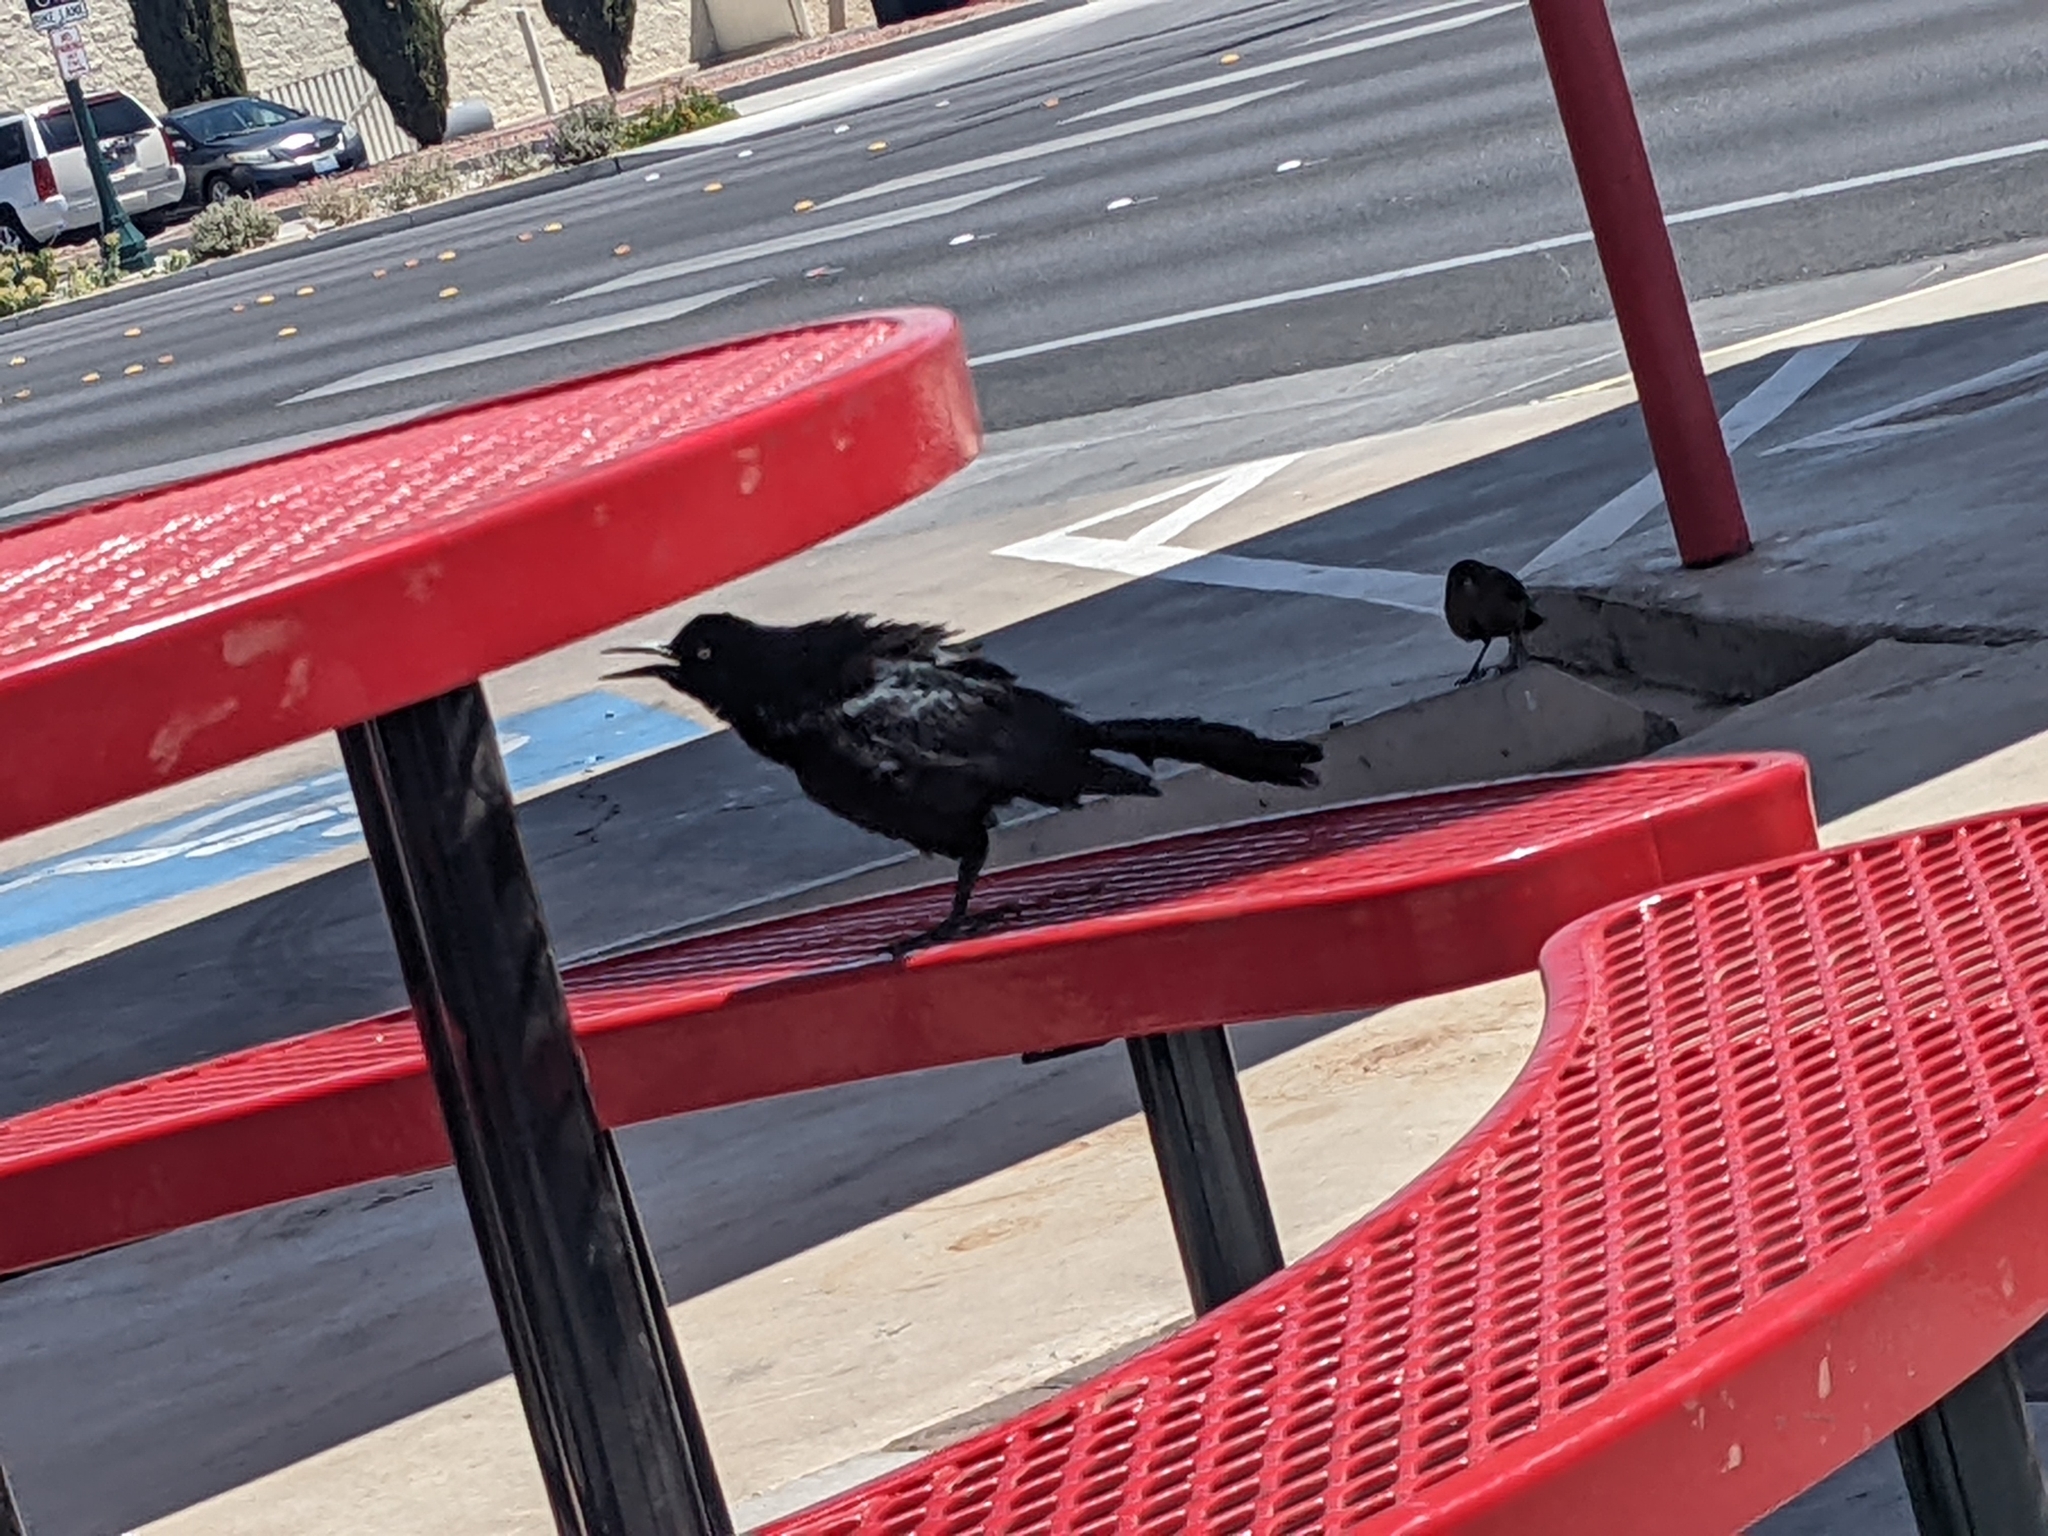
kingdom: Animalia
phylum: Chordata
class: Aves
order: Passeriformes
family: Icteridae
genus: Quiscalus
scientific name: Quiscalus mexicanus
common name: Great-tailed grackle
